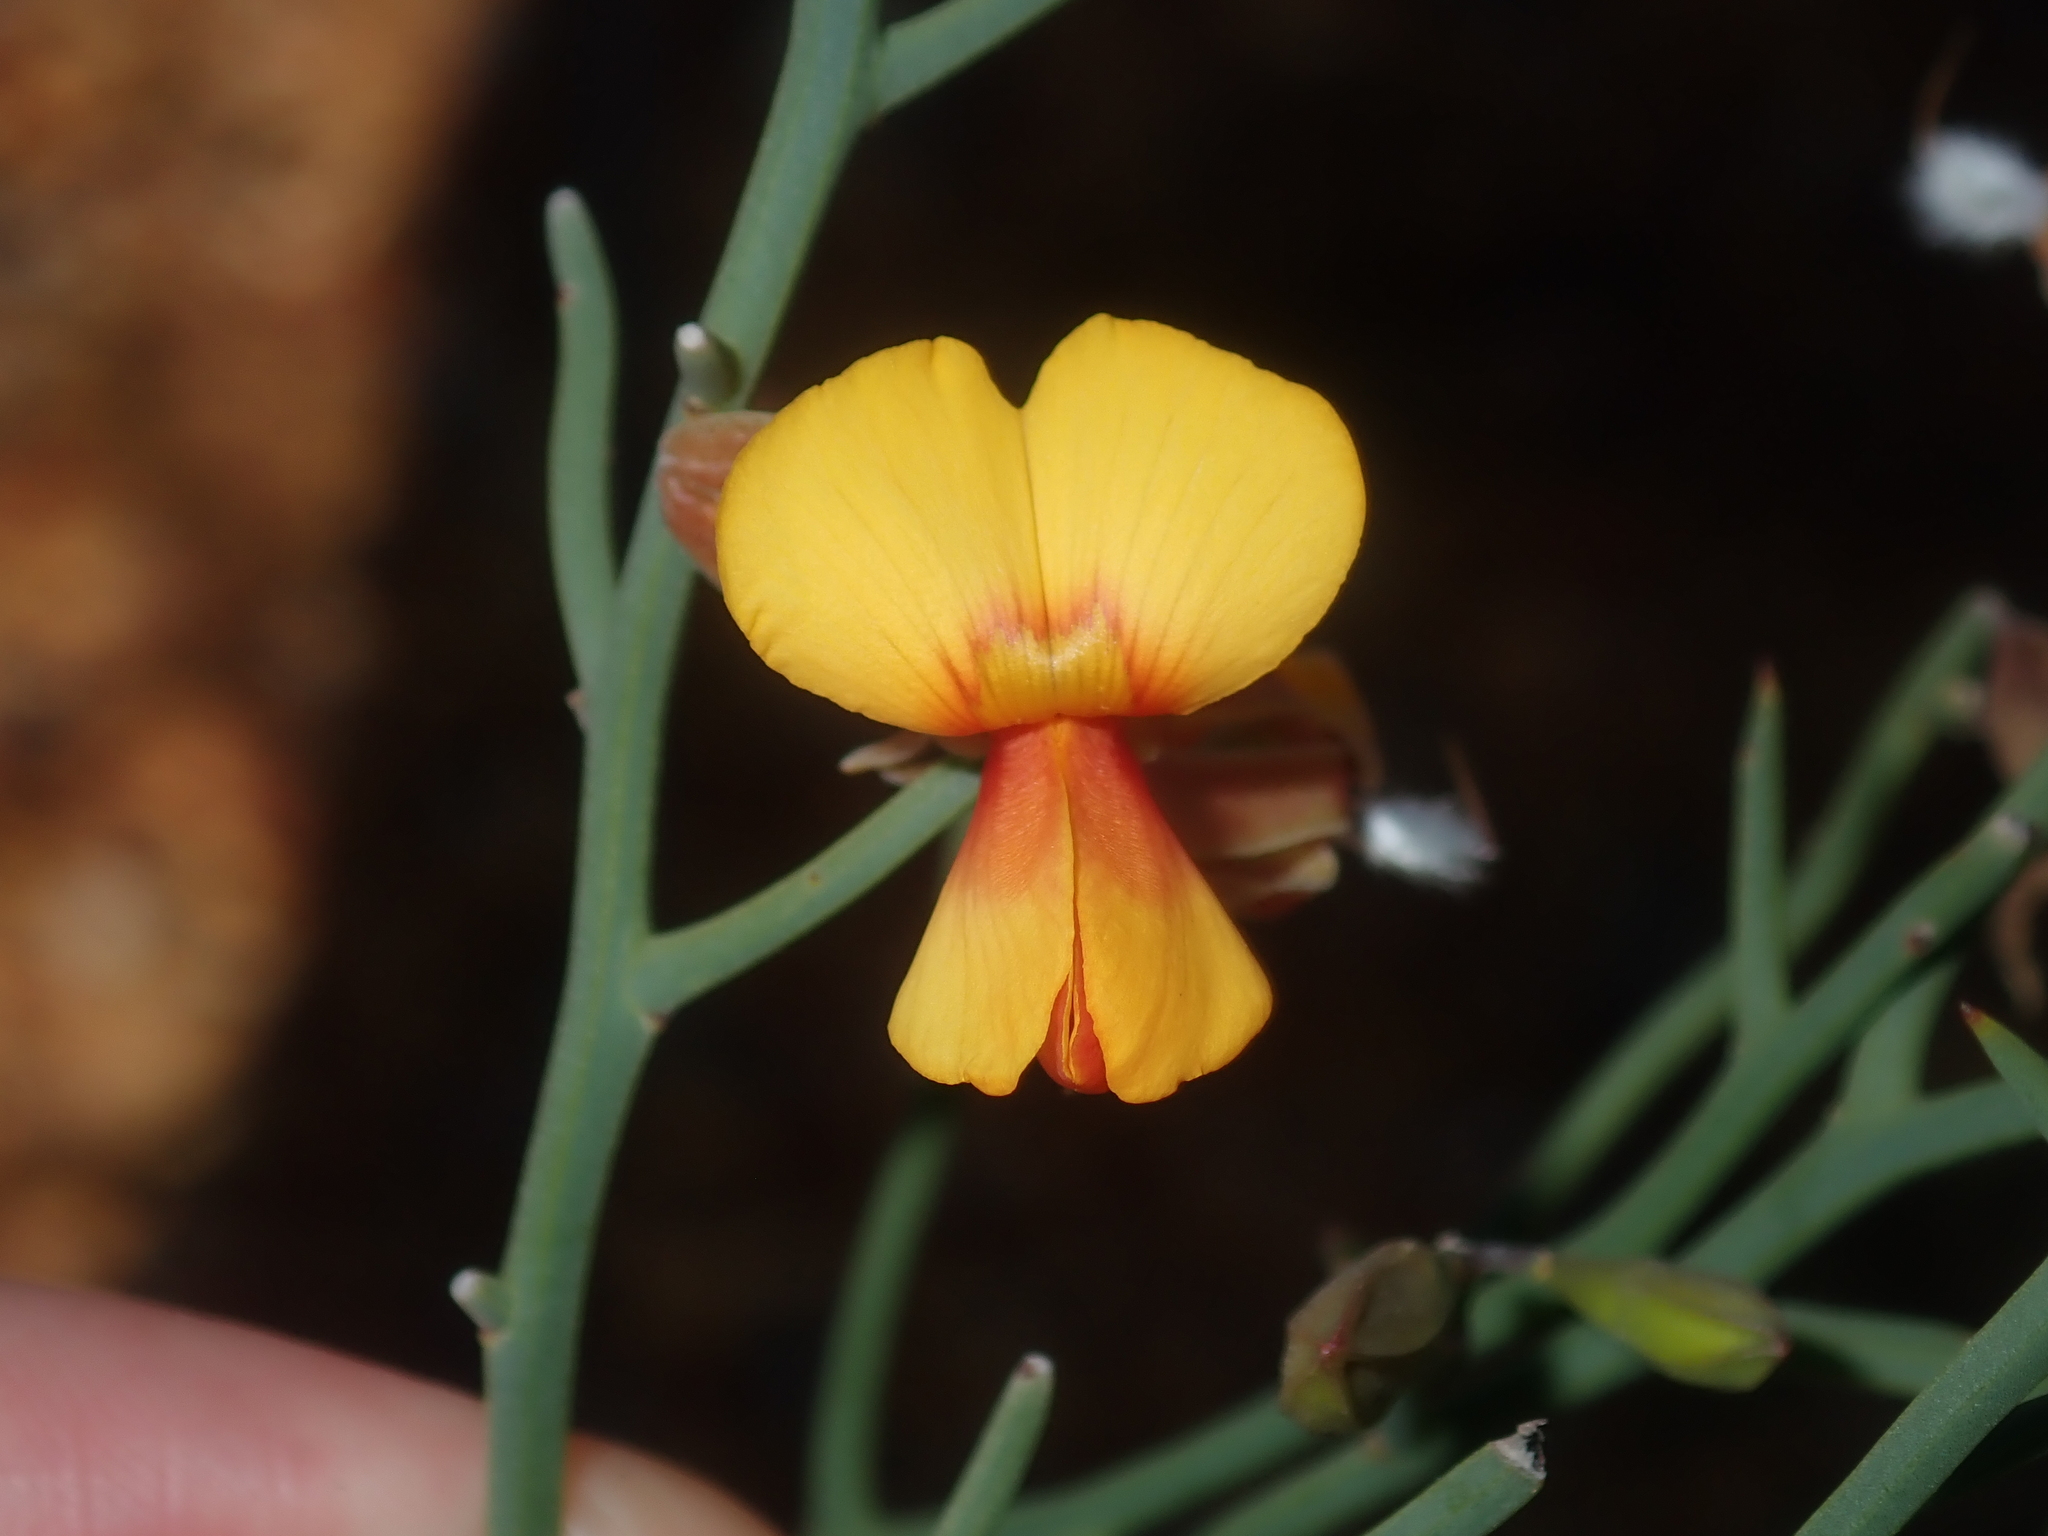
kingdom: Plantae
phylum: Tracheophyta
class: Magnoliopsida
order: Fabales
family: Fabaceae
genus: Jacksonia
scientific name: Jacksonia rigida
